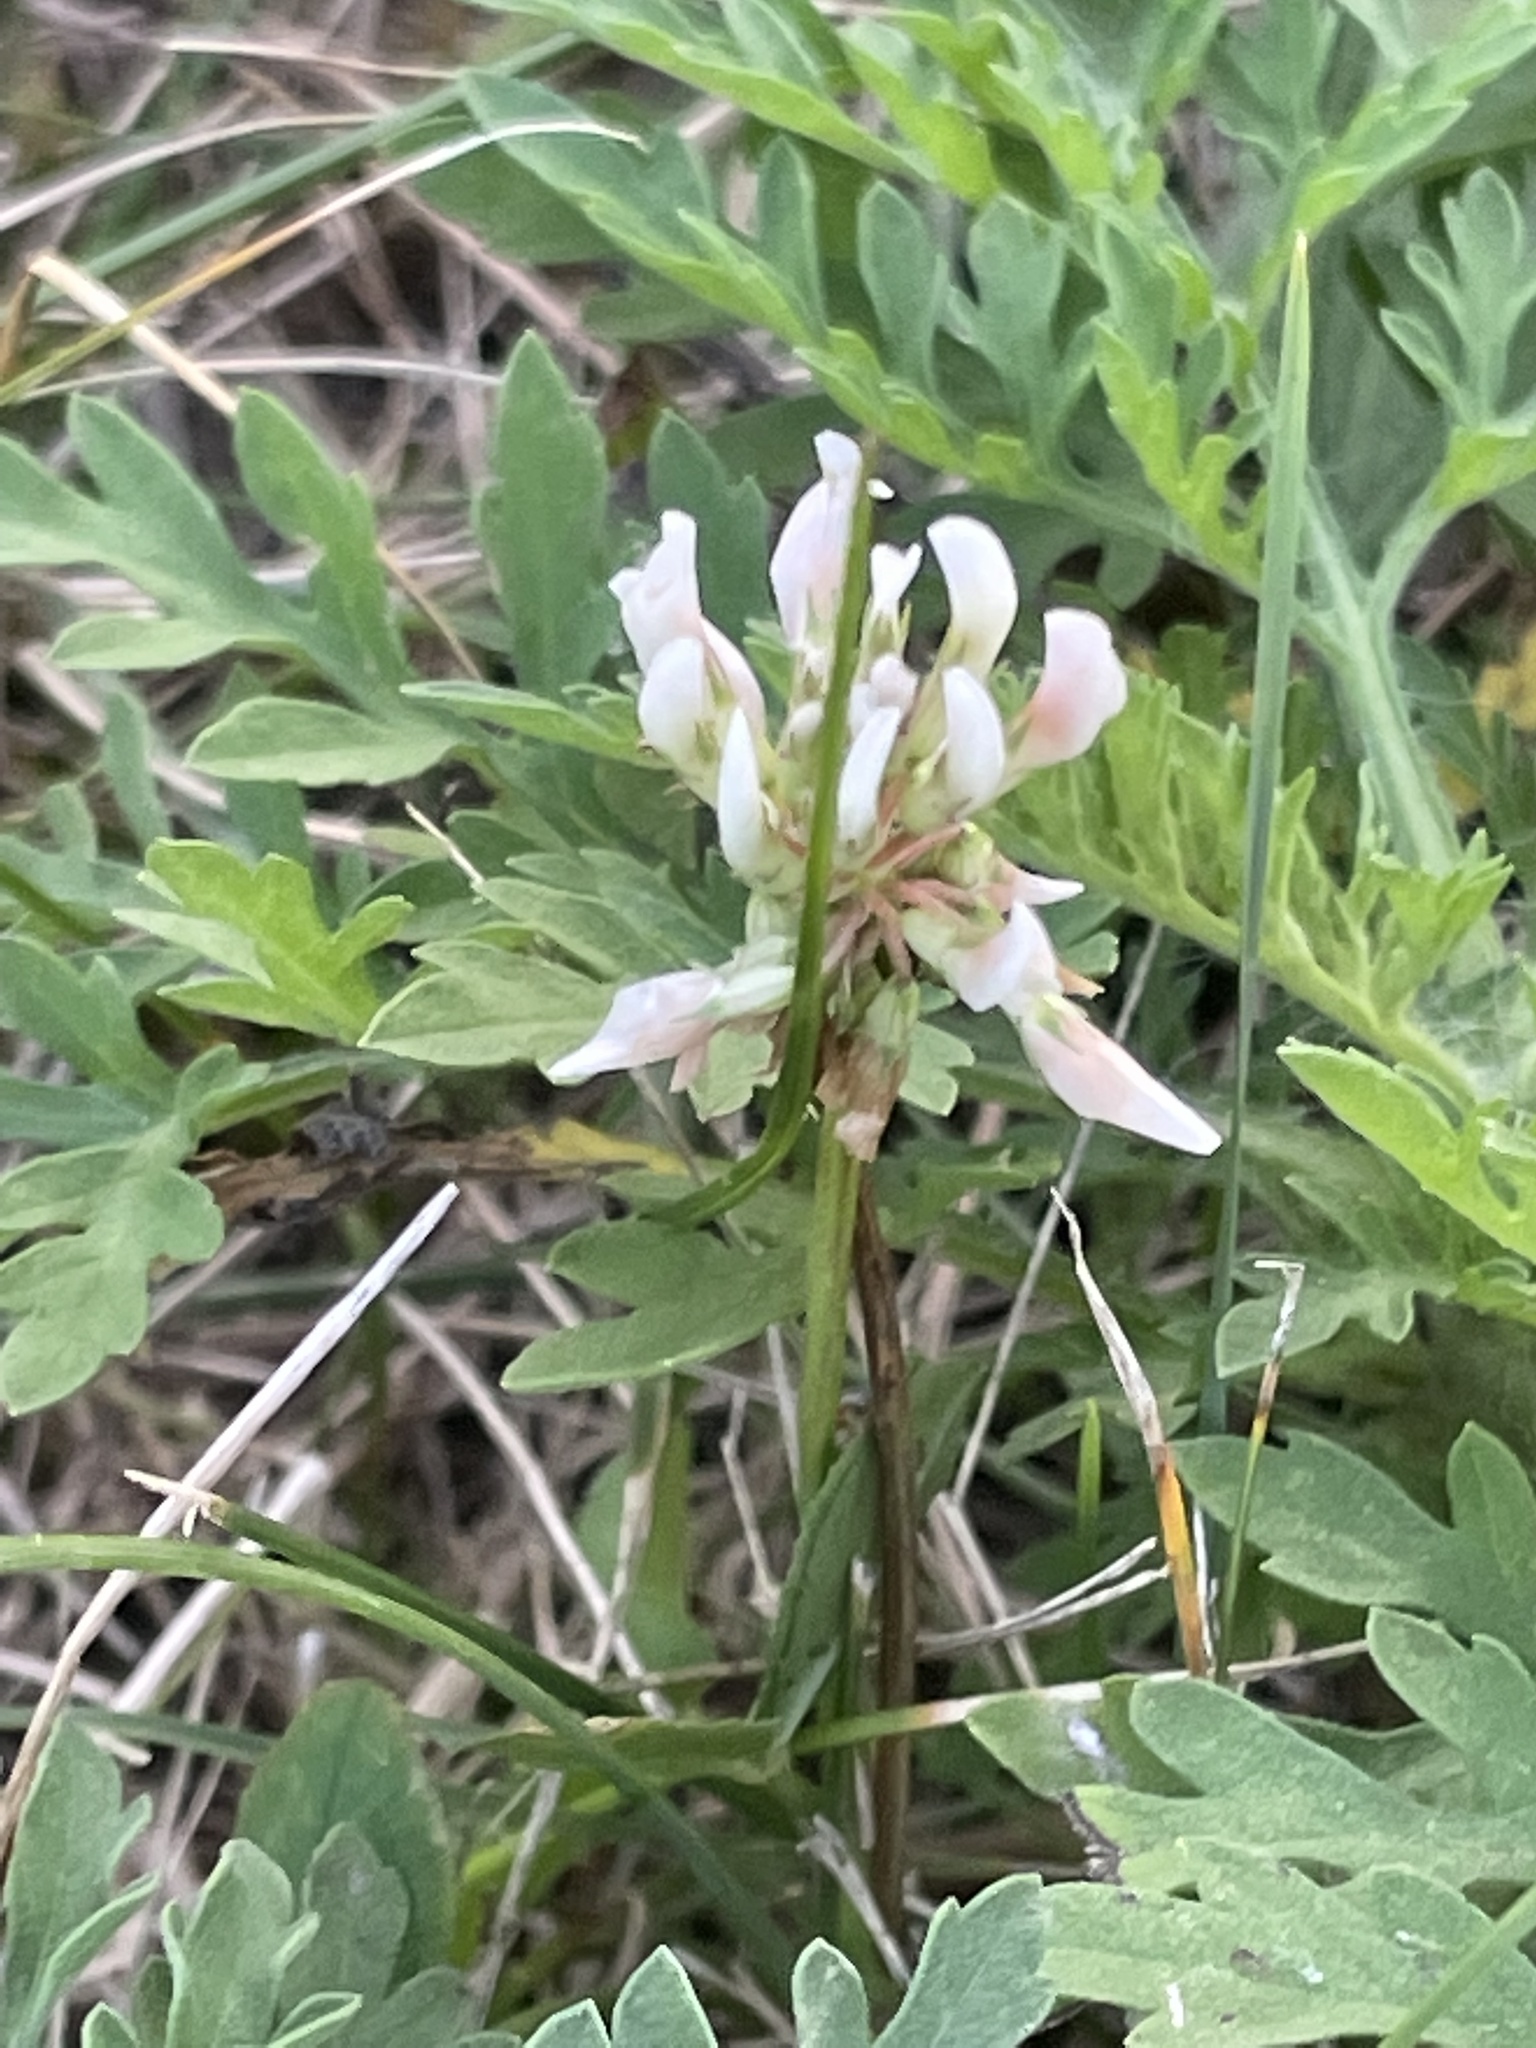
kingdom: Plantae
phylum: Tracheophyta
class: Magnoliopsida
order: Fabales
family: Fabaceae
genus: Trifolium
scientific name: Trifolium repens
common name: White clover
